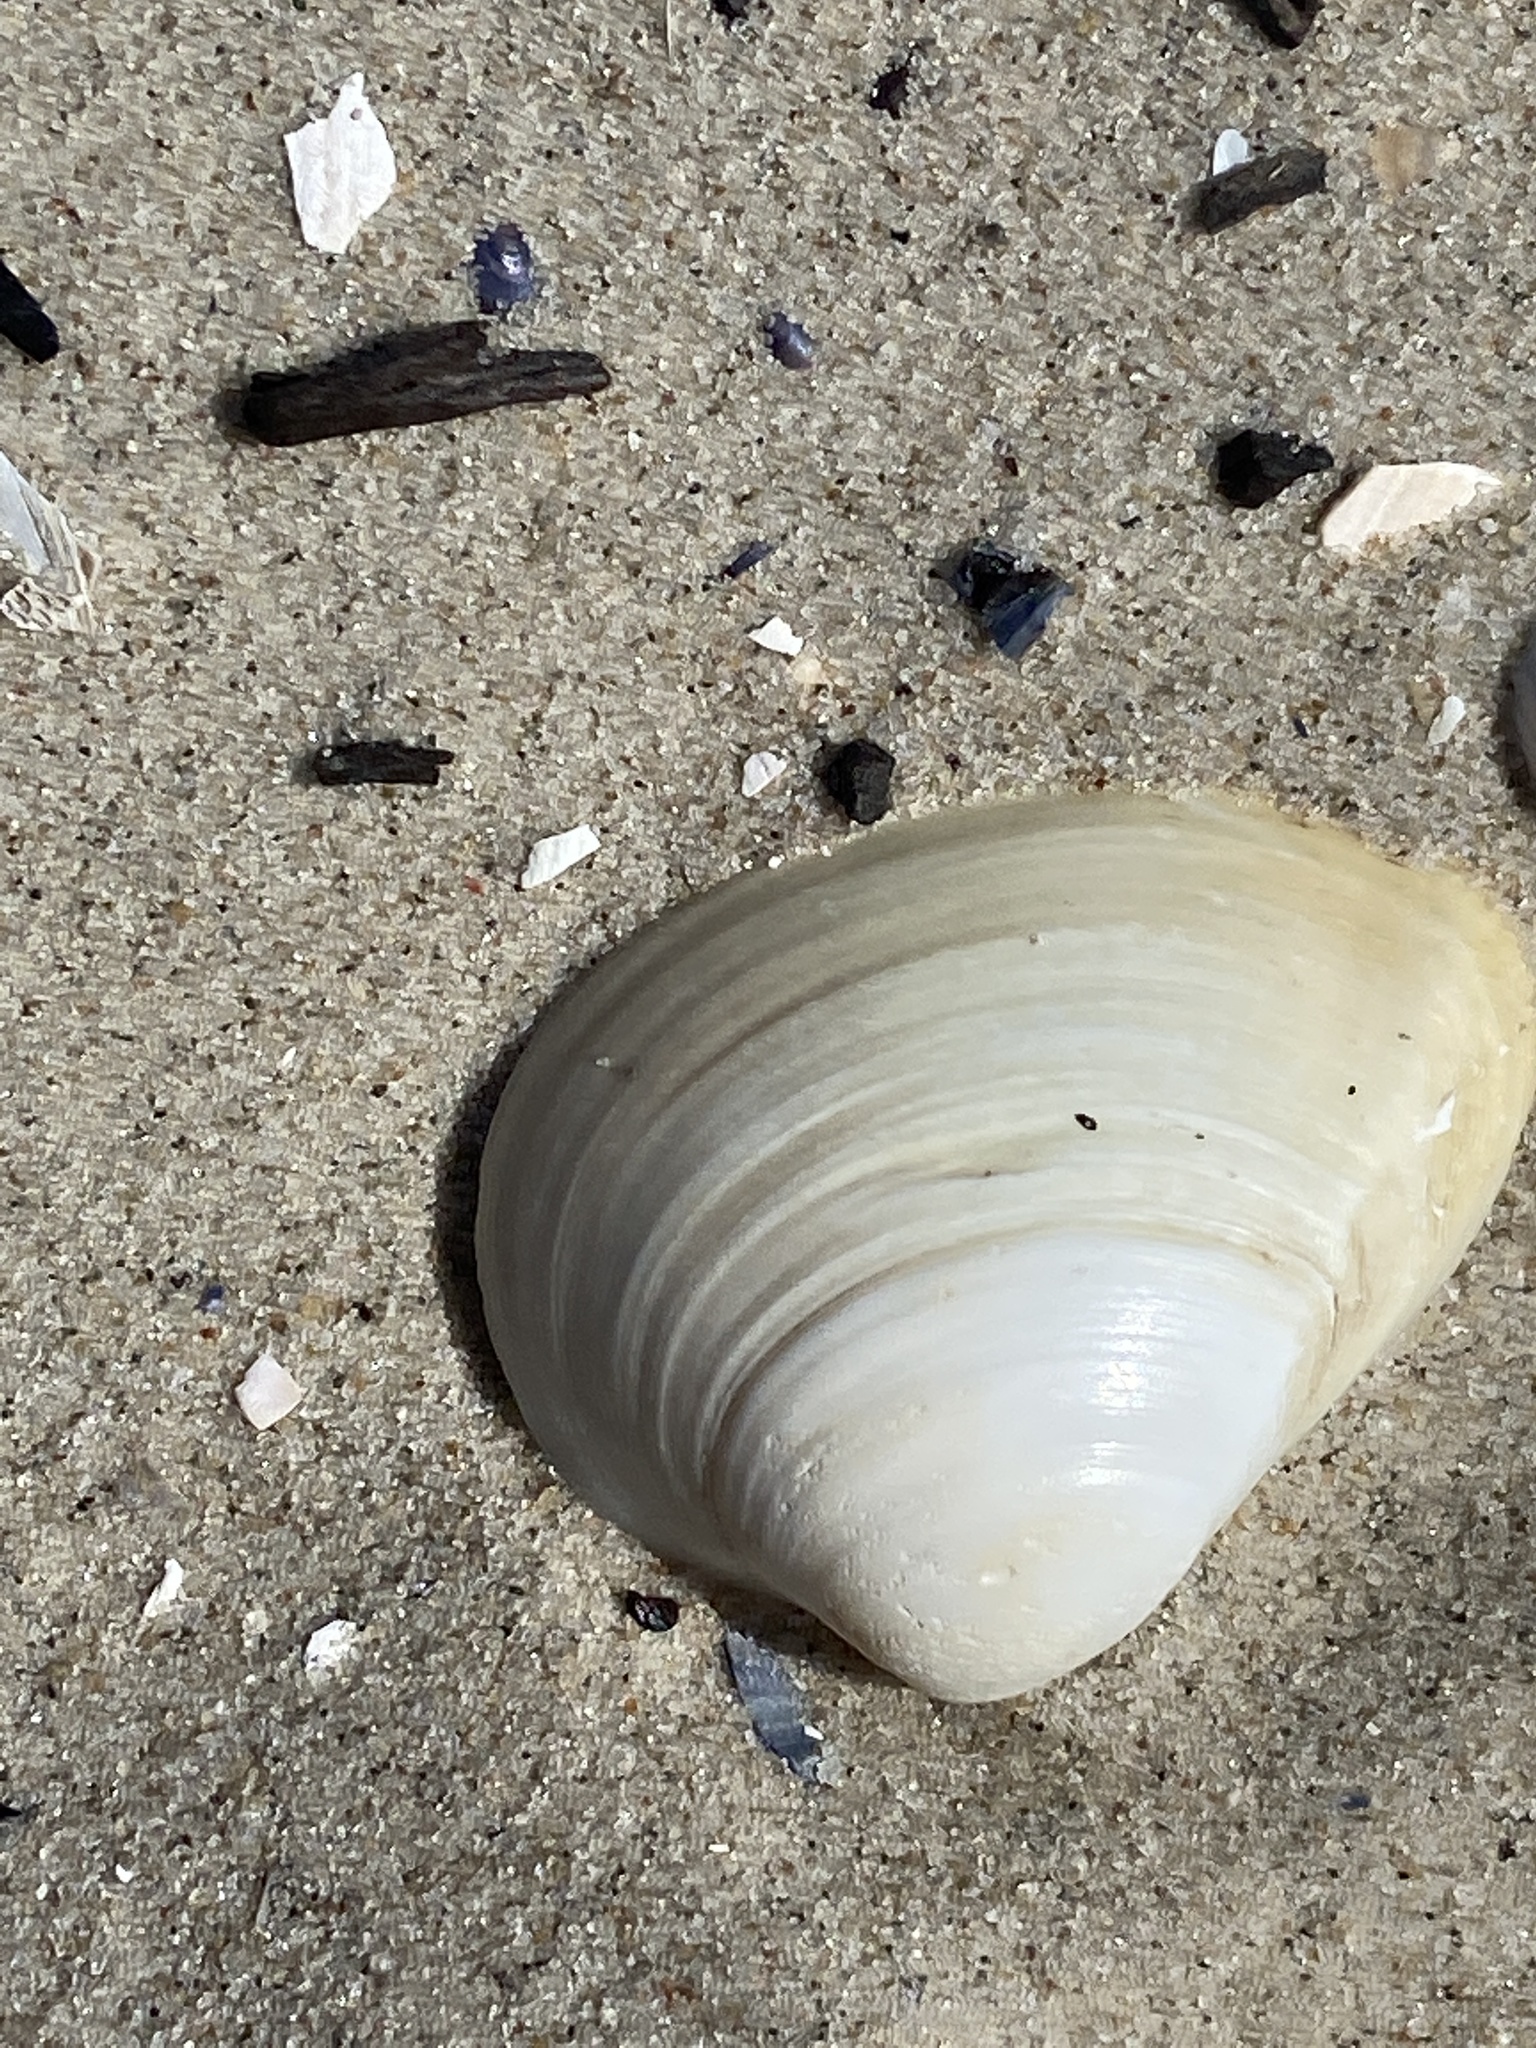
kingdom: Animalia
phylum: Mollusca
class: Bivalvia
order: Venerida
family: Mactridae
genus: Rangia
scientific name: Rangia cuneata
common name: Atlantic rangia
